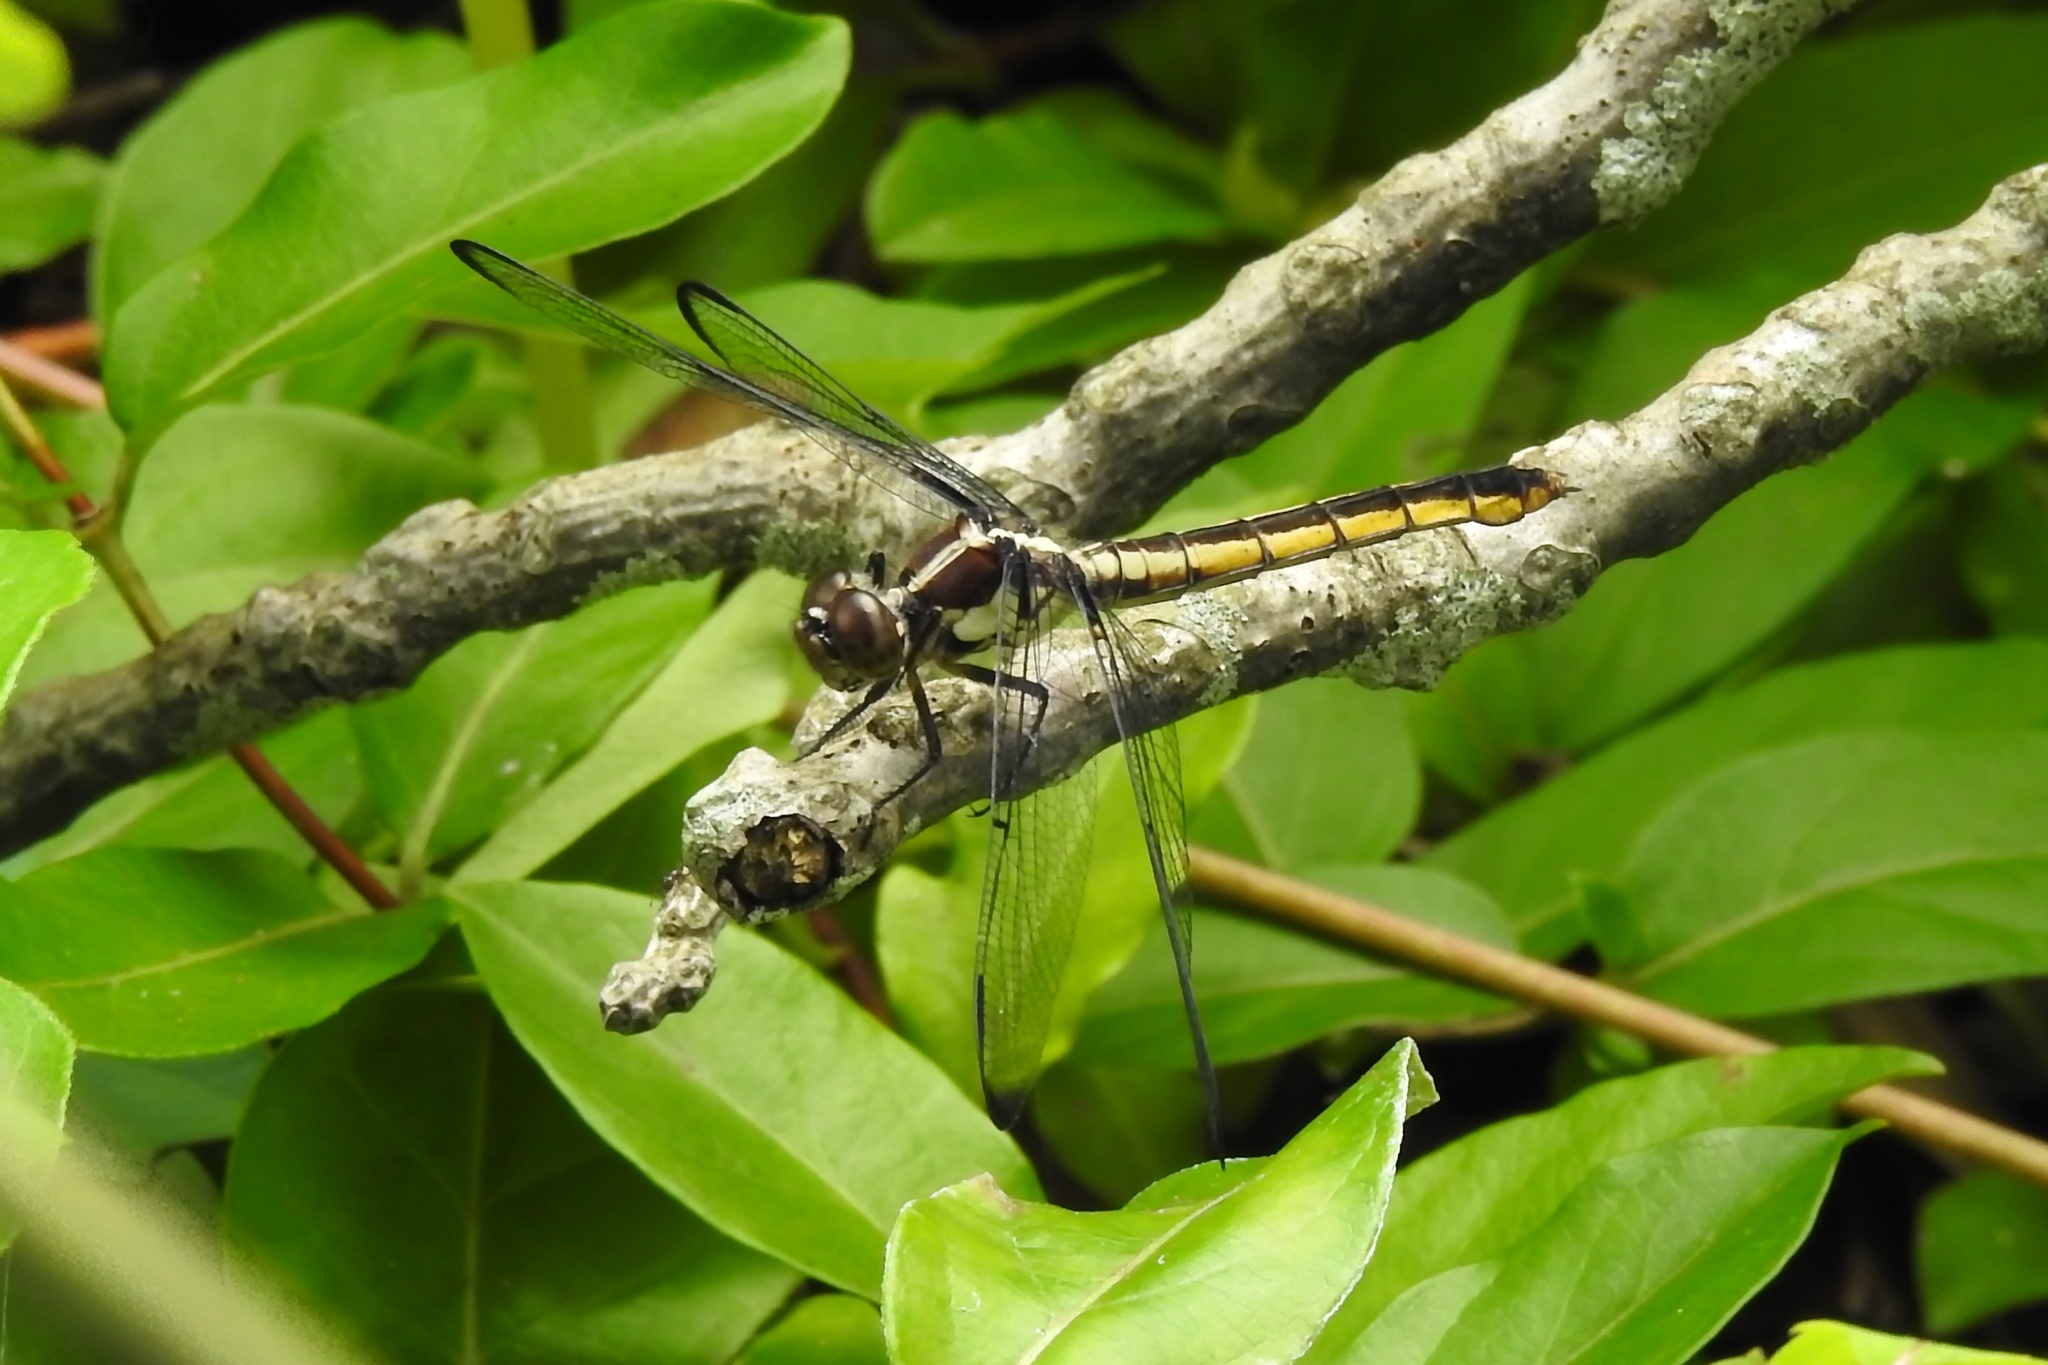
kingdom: Animalia
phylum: Arthropoda
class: Insecta
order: Odonata
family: Libellulidae
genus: Libellula
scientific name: Libellula incesta
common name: Slaty skimmer
